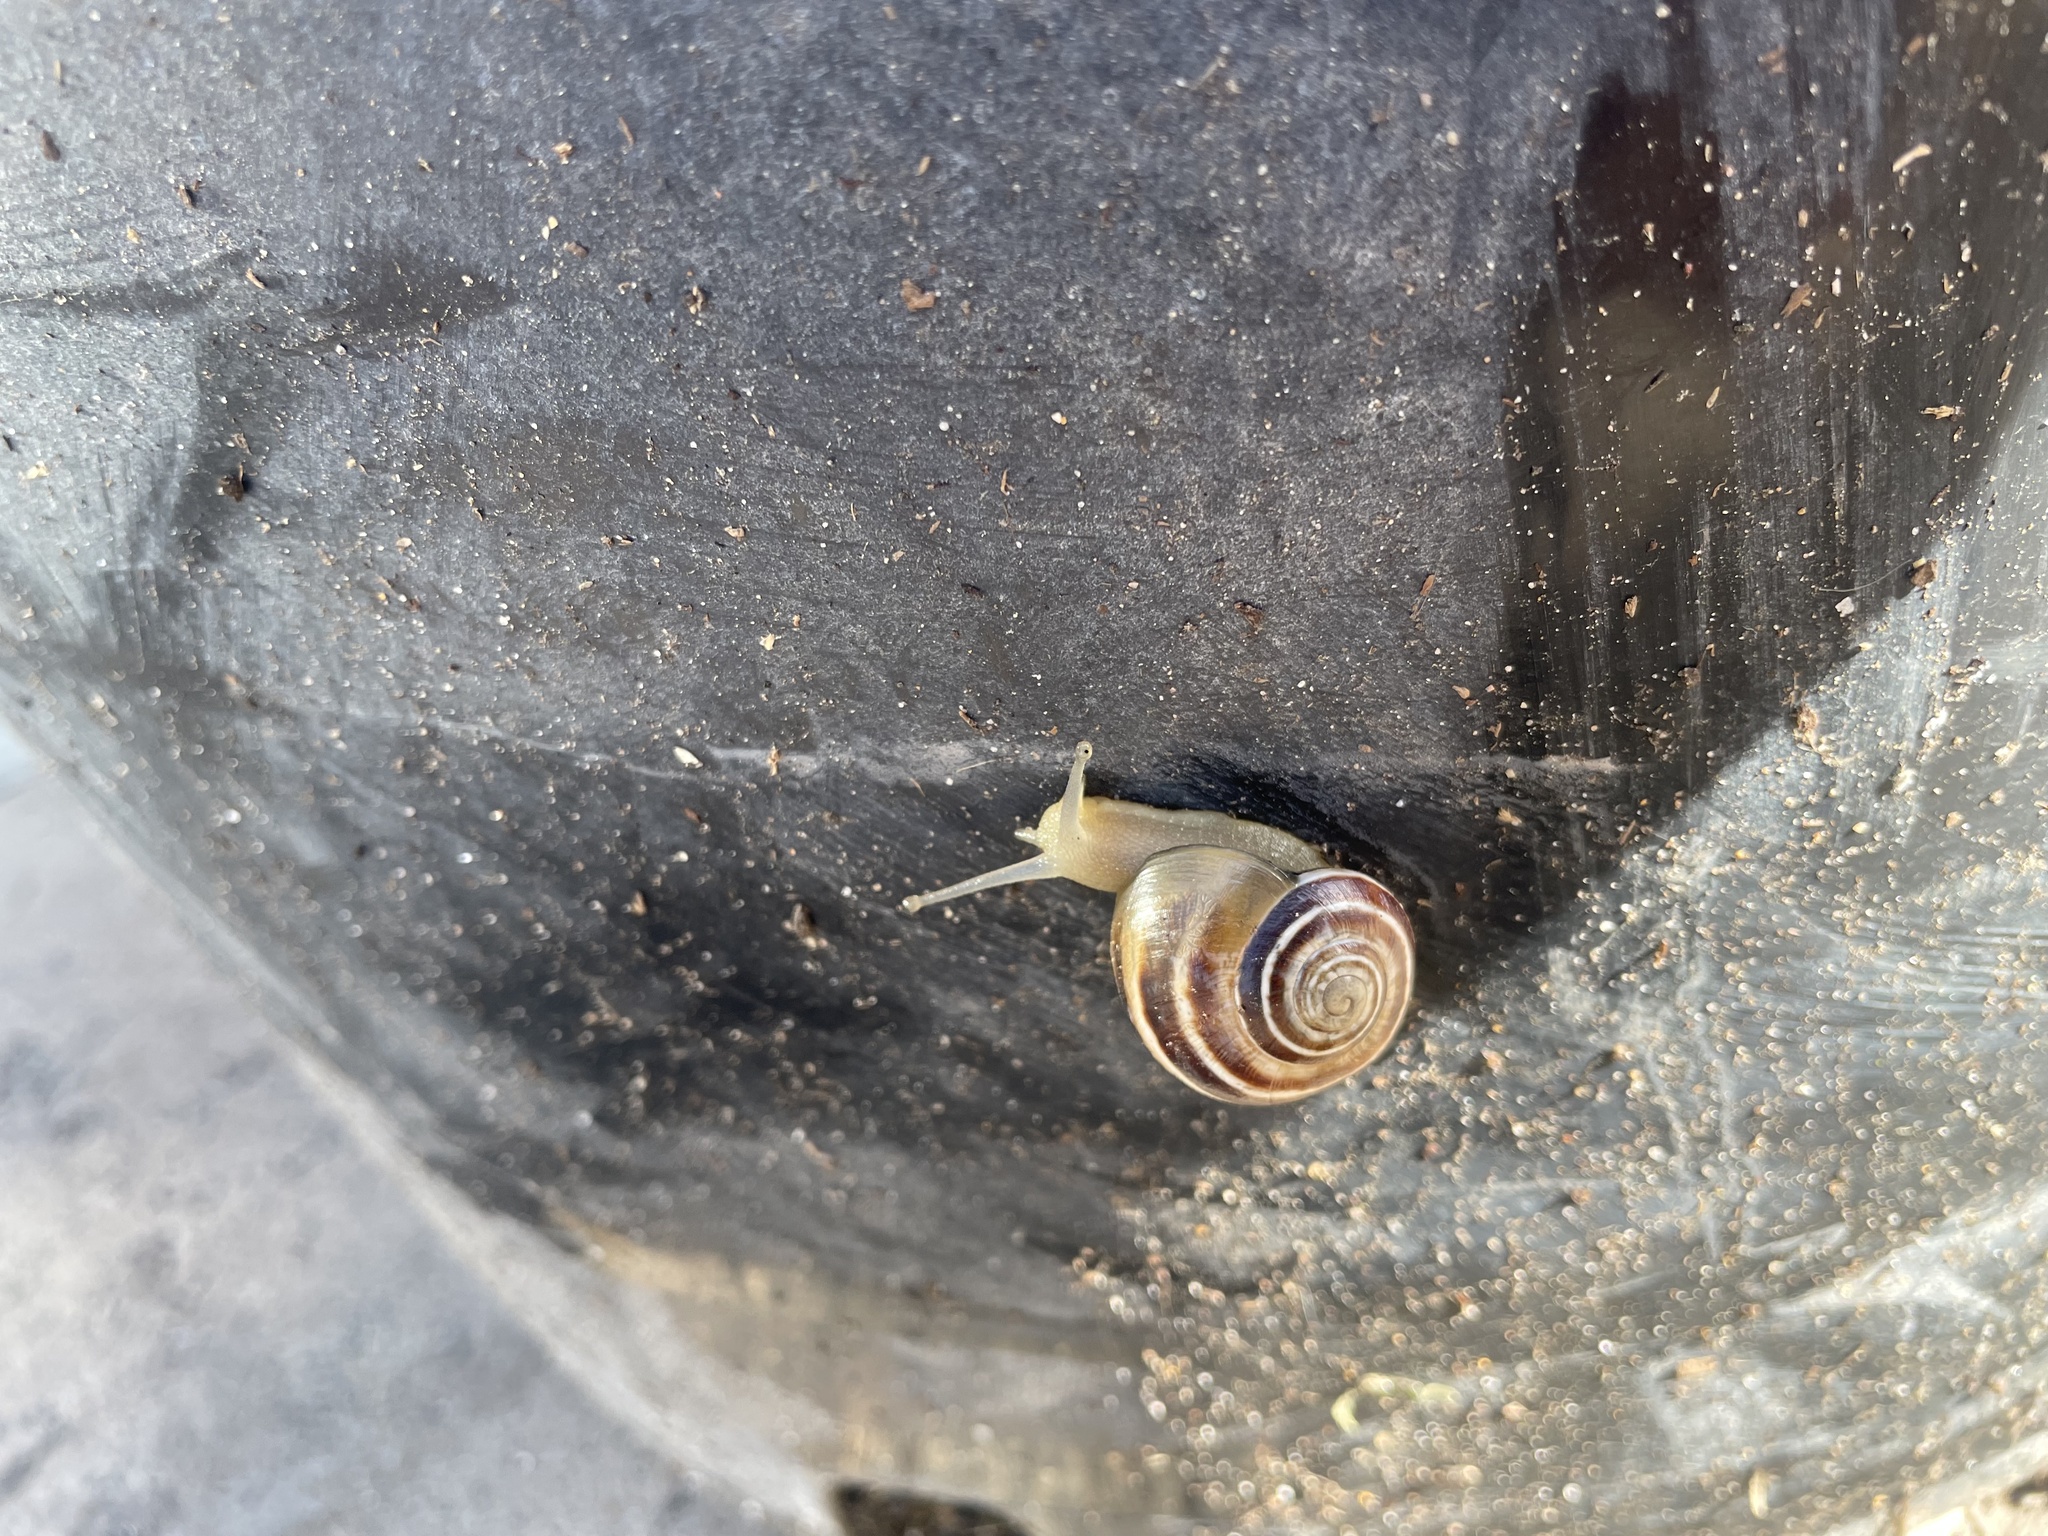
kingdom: Animalia
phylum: Mollusca
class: Gastropoda
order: Stylommatophora
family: Helicidae
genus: Otala
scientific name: Otala lactea
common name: Milk snail
